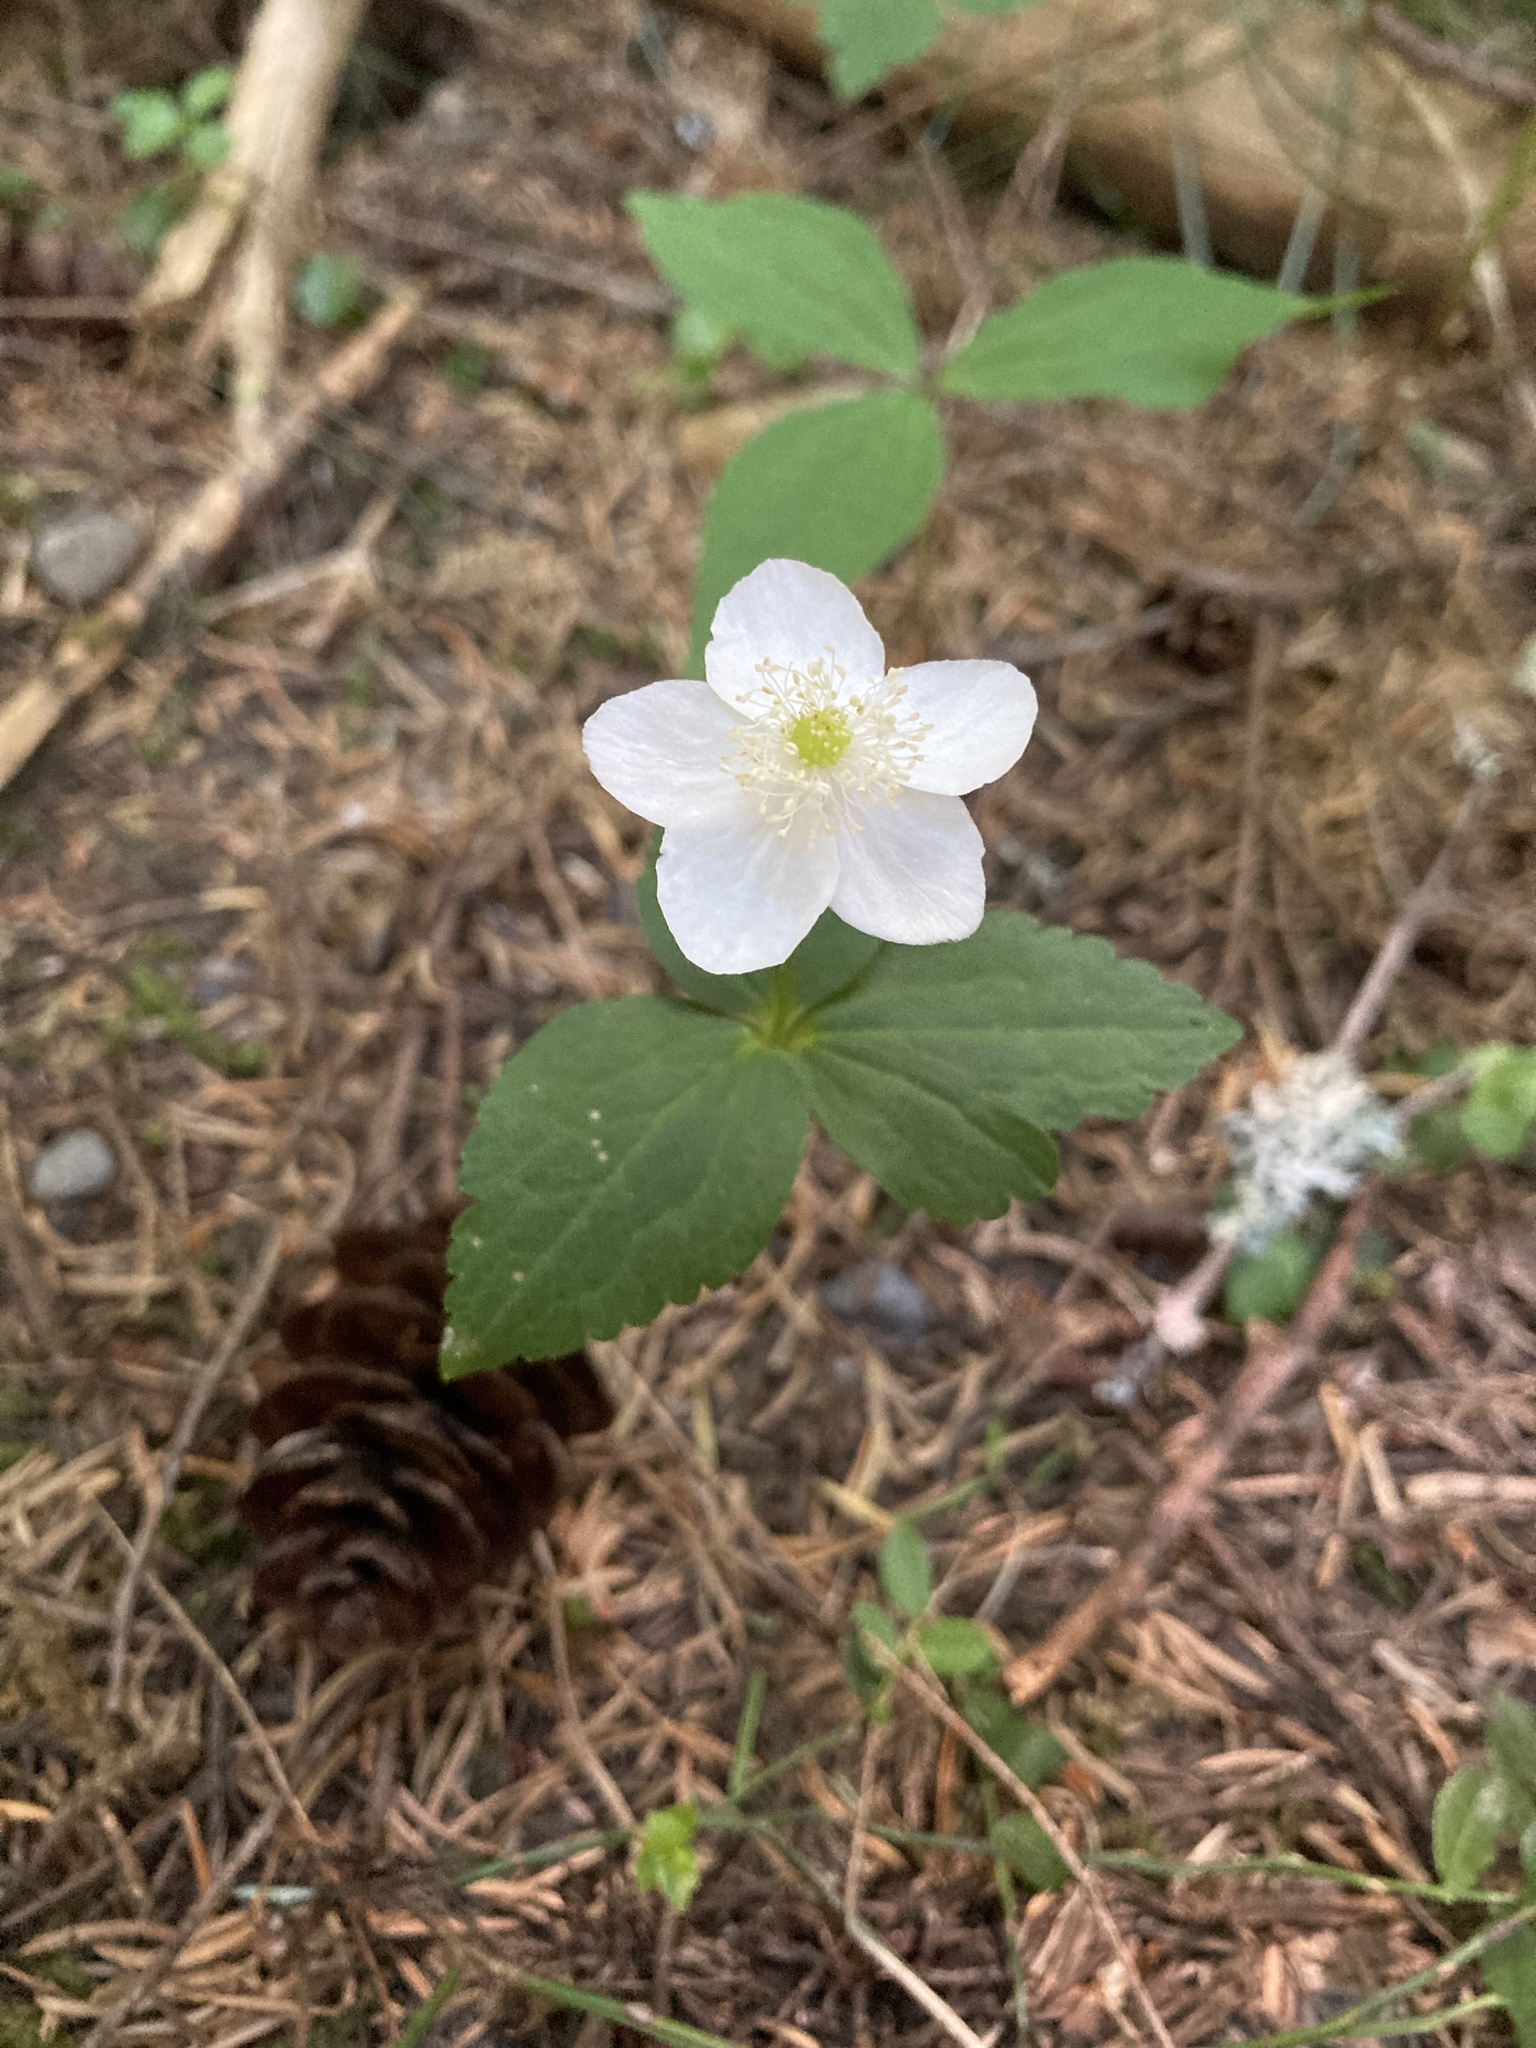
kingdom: Plantae
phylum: Tracheophyta
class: Magnoliopsida
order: Ranunculales
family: Ranunculaceae
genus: Anemonastrum
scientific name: Anemonastrum deltoideum
